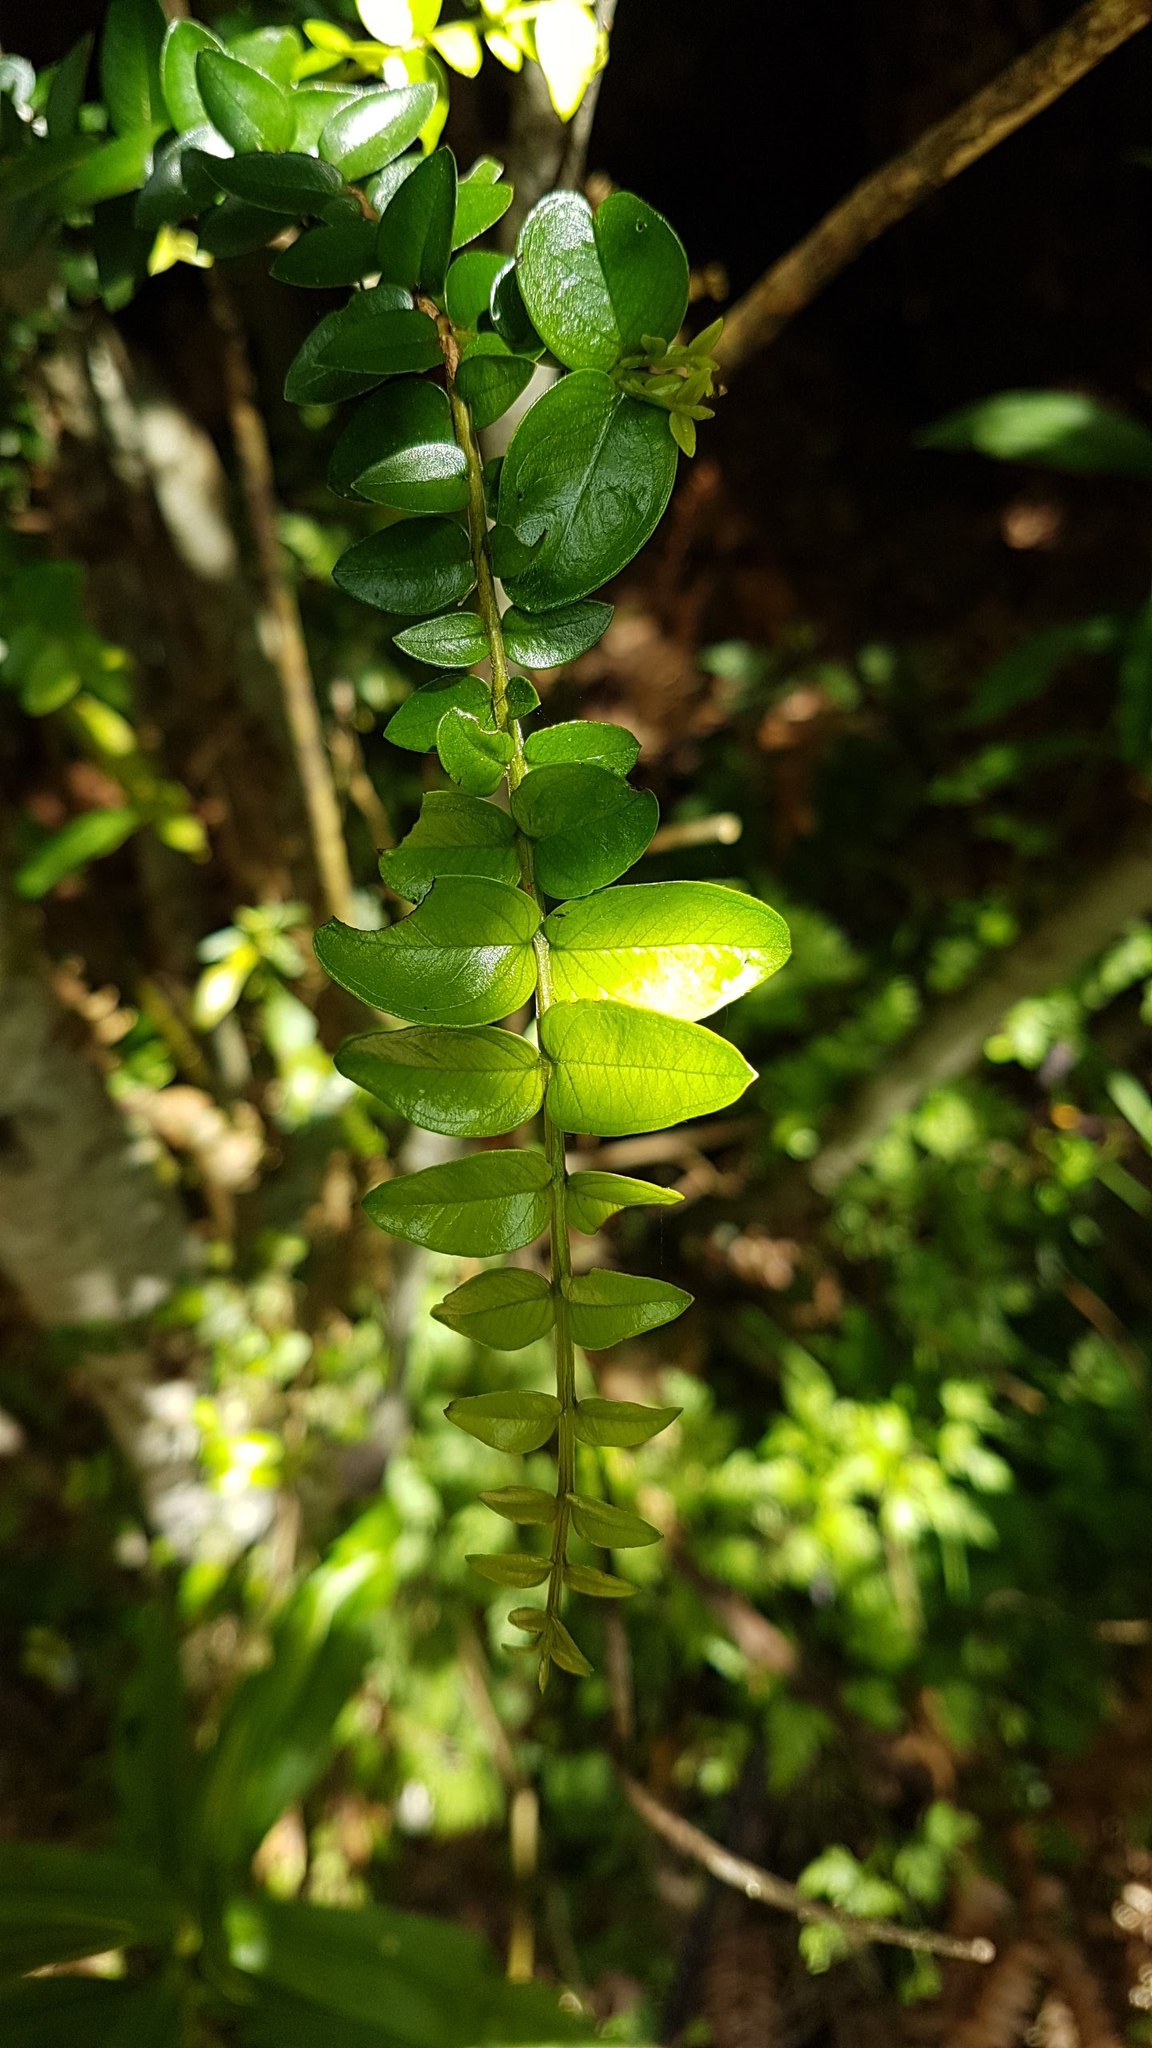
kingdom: Plantae
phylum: Tracheophyta
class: Magnoliopsida
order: Myrtales
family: Myrtaceae
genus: Metrosideros
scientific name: Metrosideros diffusa
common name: Small ratavine
